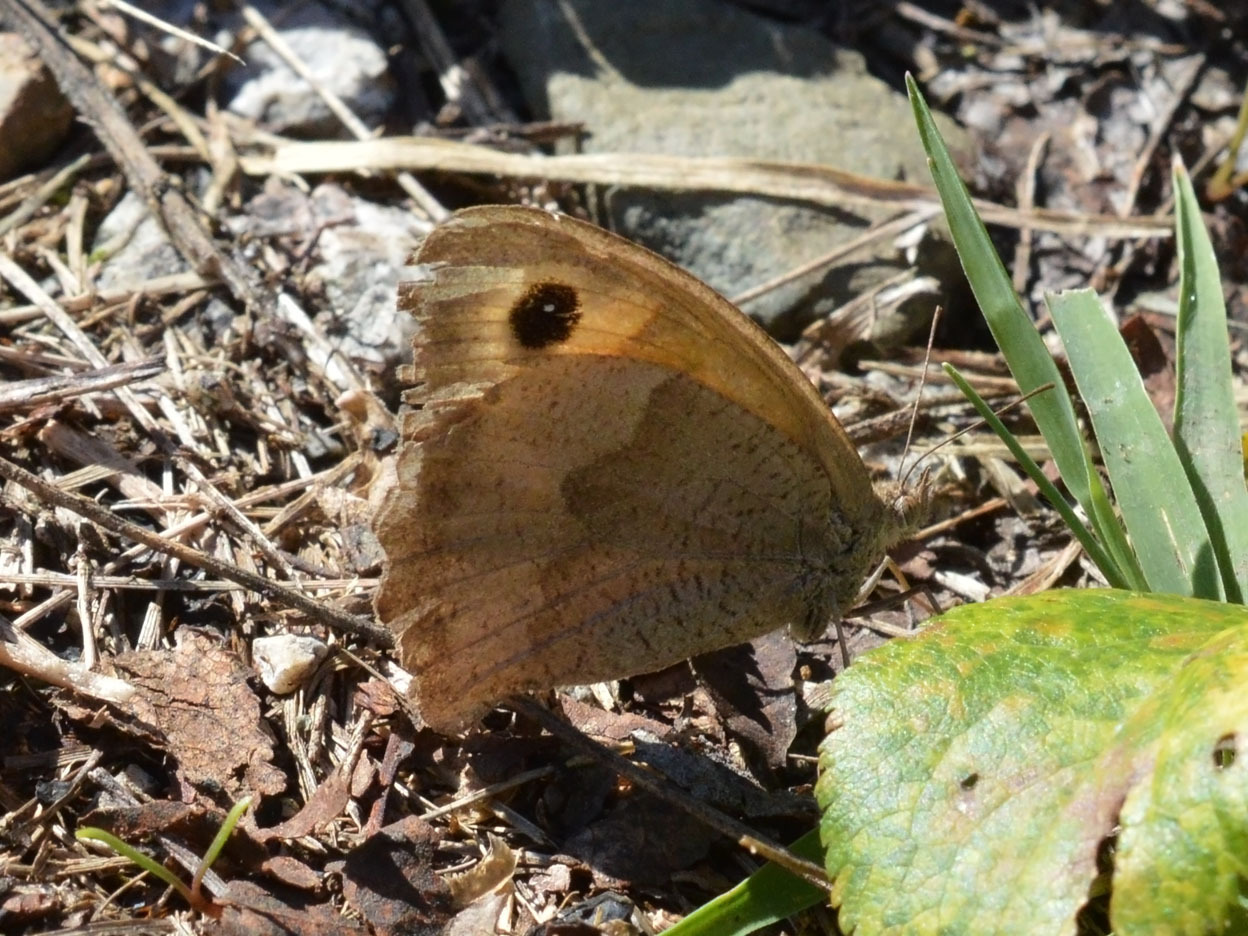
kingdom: Animalia
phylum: Arthropoda
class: Insecta
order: Lepidoptera
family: Nymphalidae
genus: Maniola
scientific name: Maniola jurtina
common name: Meadow brown
